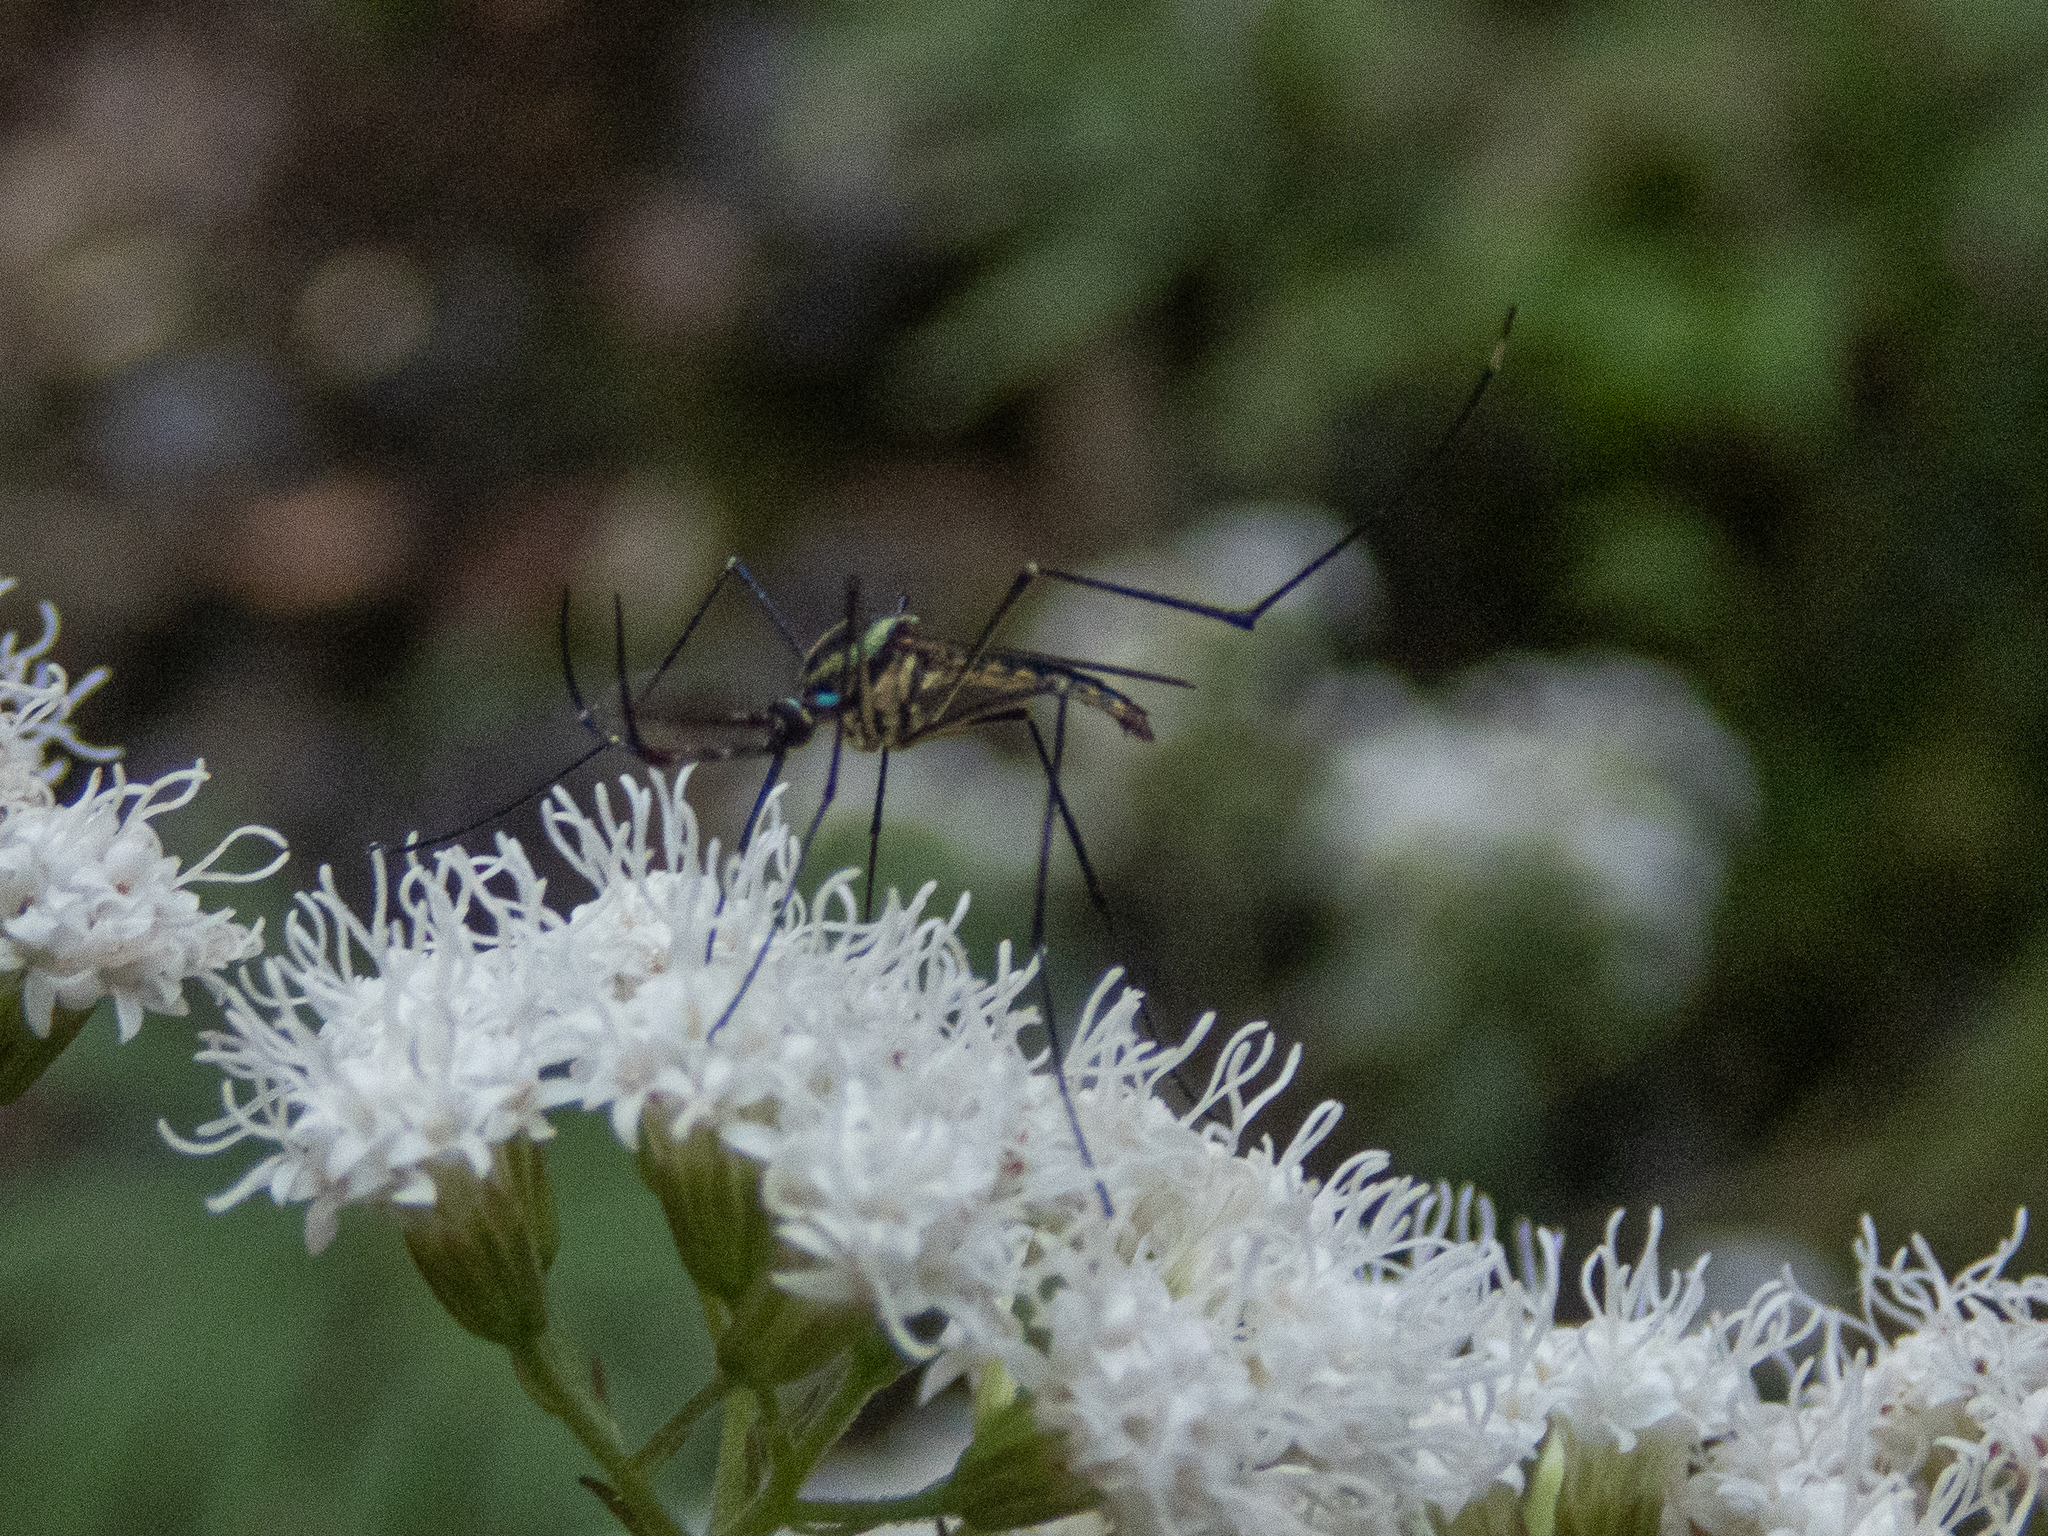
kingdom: Animalia
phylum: Arthropoda
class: Insecta
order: Diptera
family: Culicidae
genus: Toxorhynchites
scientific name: Toxorhynchites rutilus
